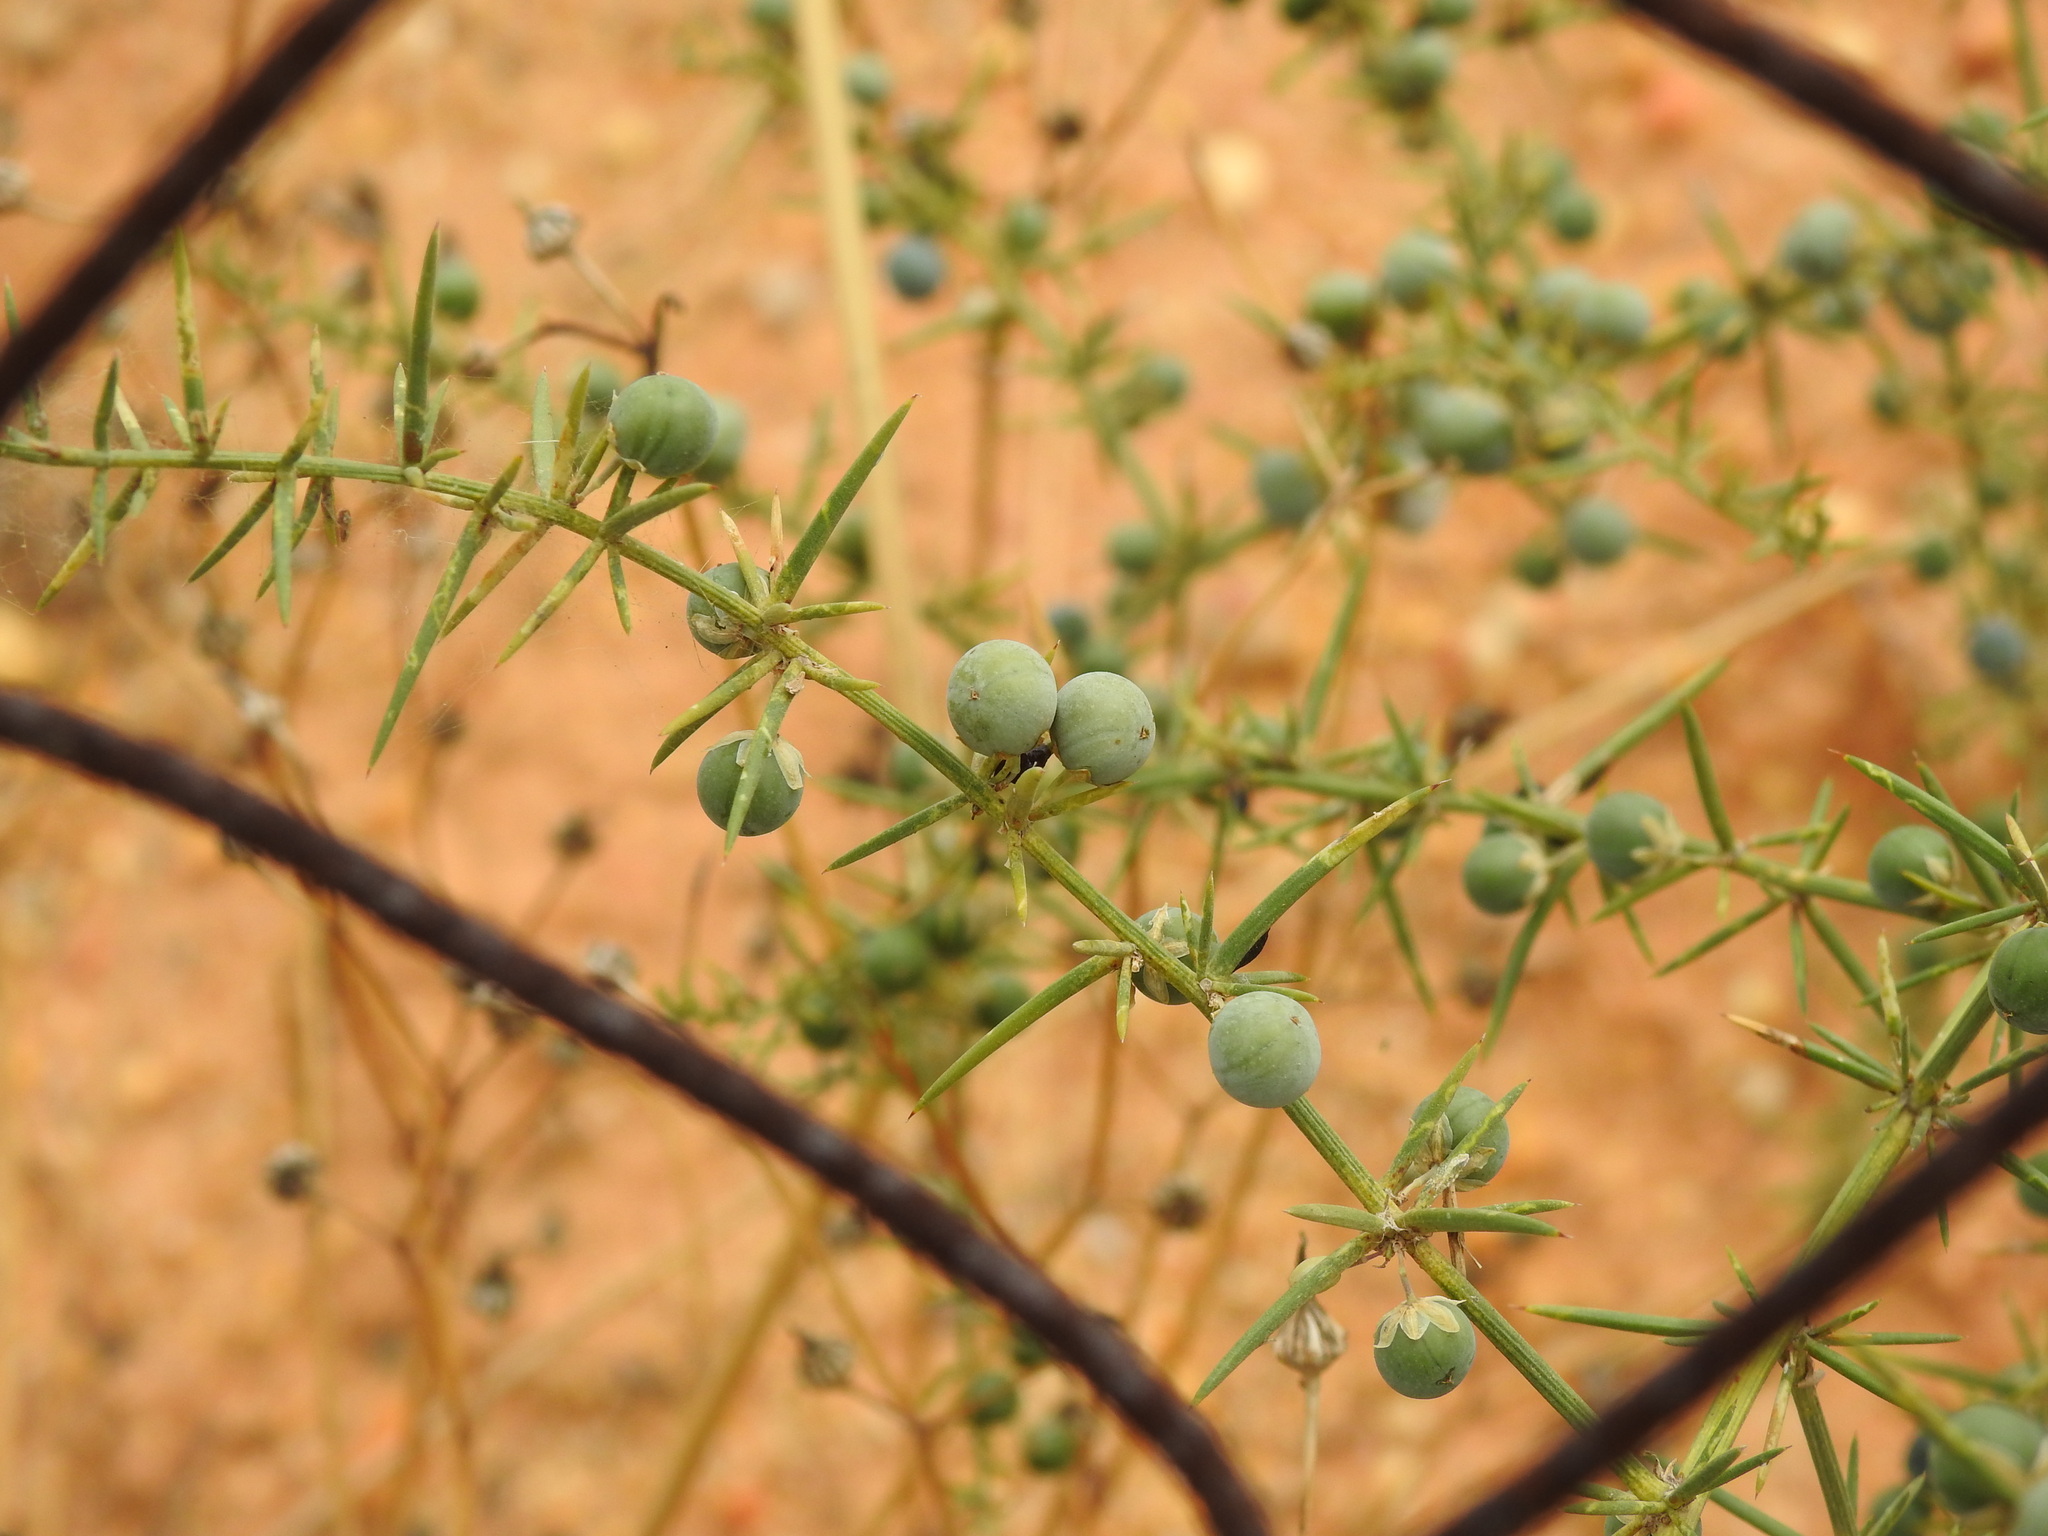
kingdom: Plantae
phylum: Tracheophyta
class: Liliopsida
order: Asparagales
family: Asparagaceae
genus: Asparagus
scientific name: Asparagus aphyllus
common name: Mediterranean asparagus
